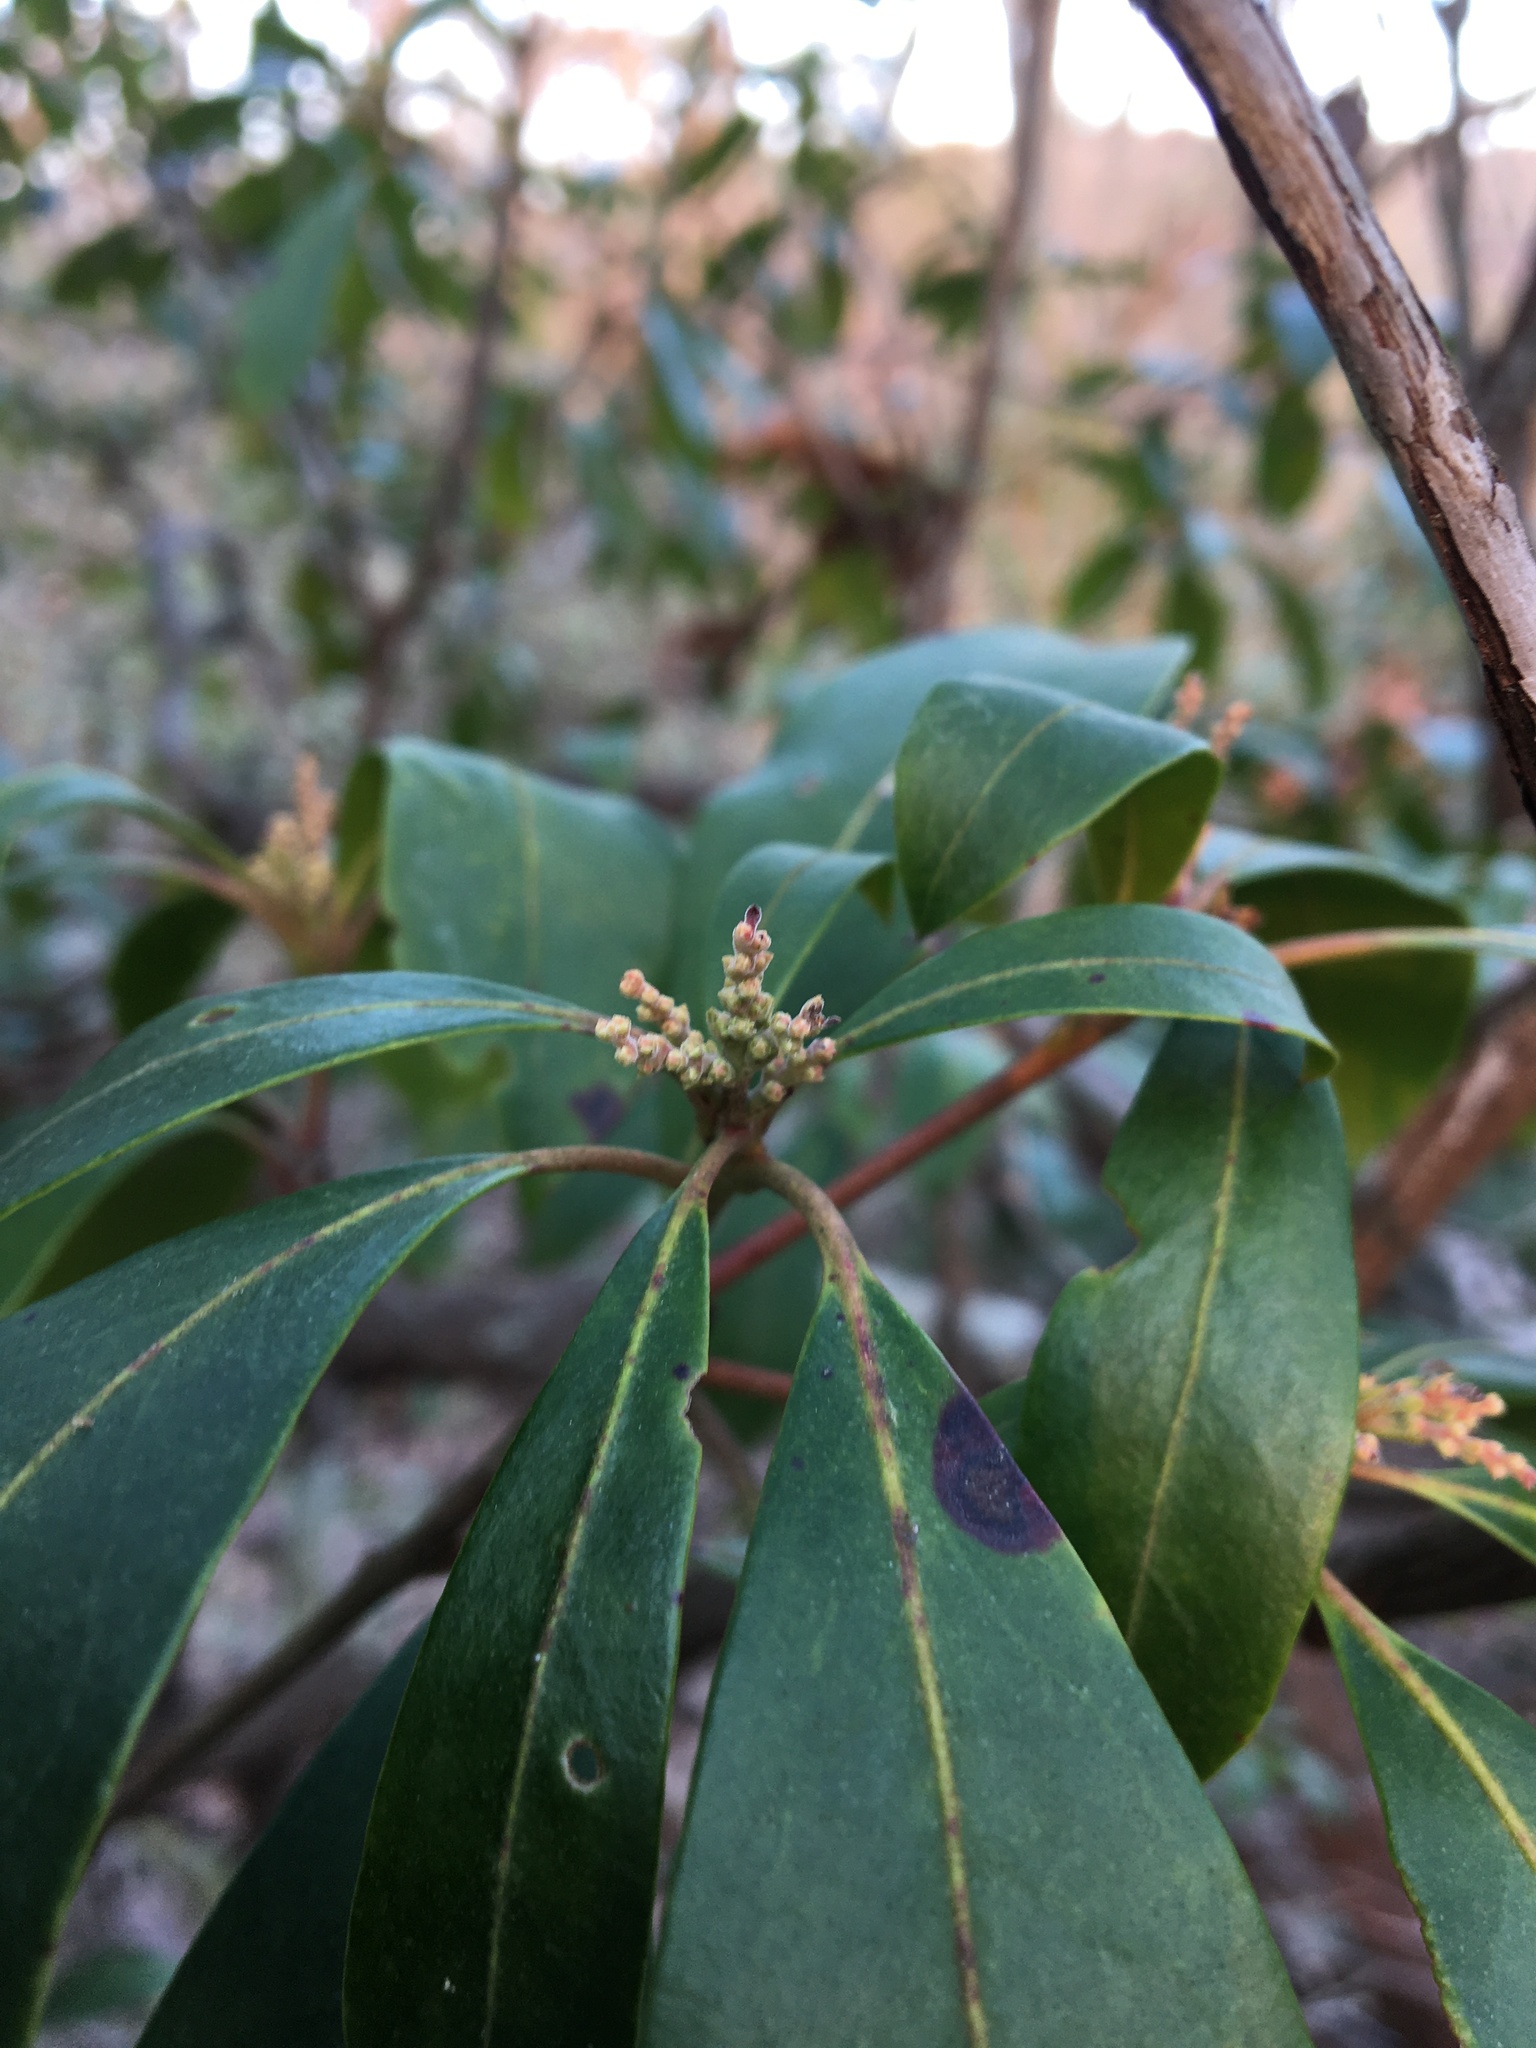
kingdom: Plantae
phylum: Tracheophyta
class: Magnoliopsida
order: Ericales
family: Ericaceae
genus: Kalmia
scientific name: Kalmia latifolia
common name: Mountain-laurel
